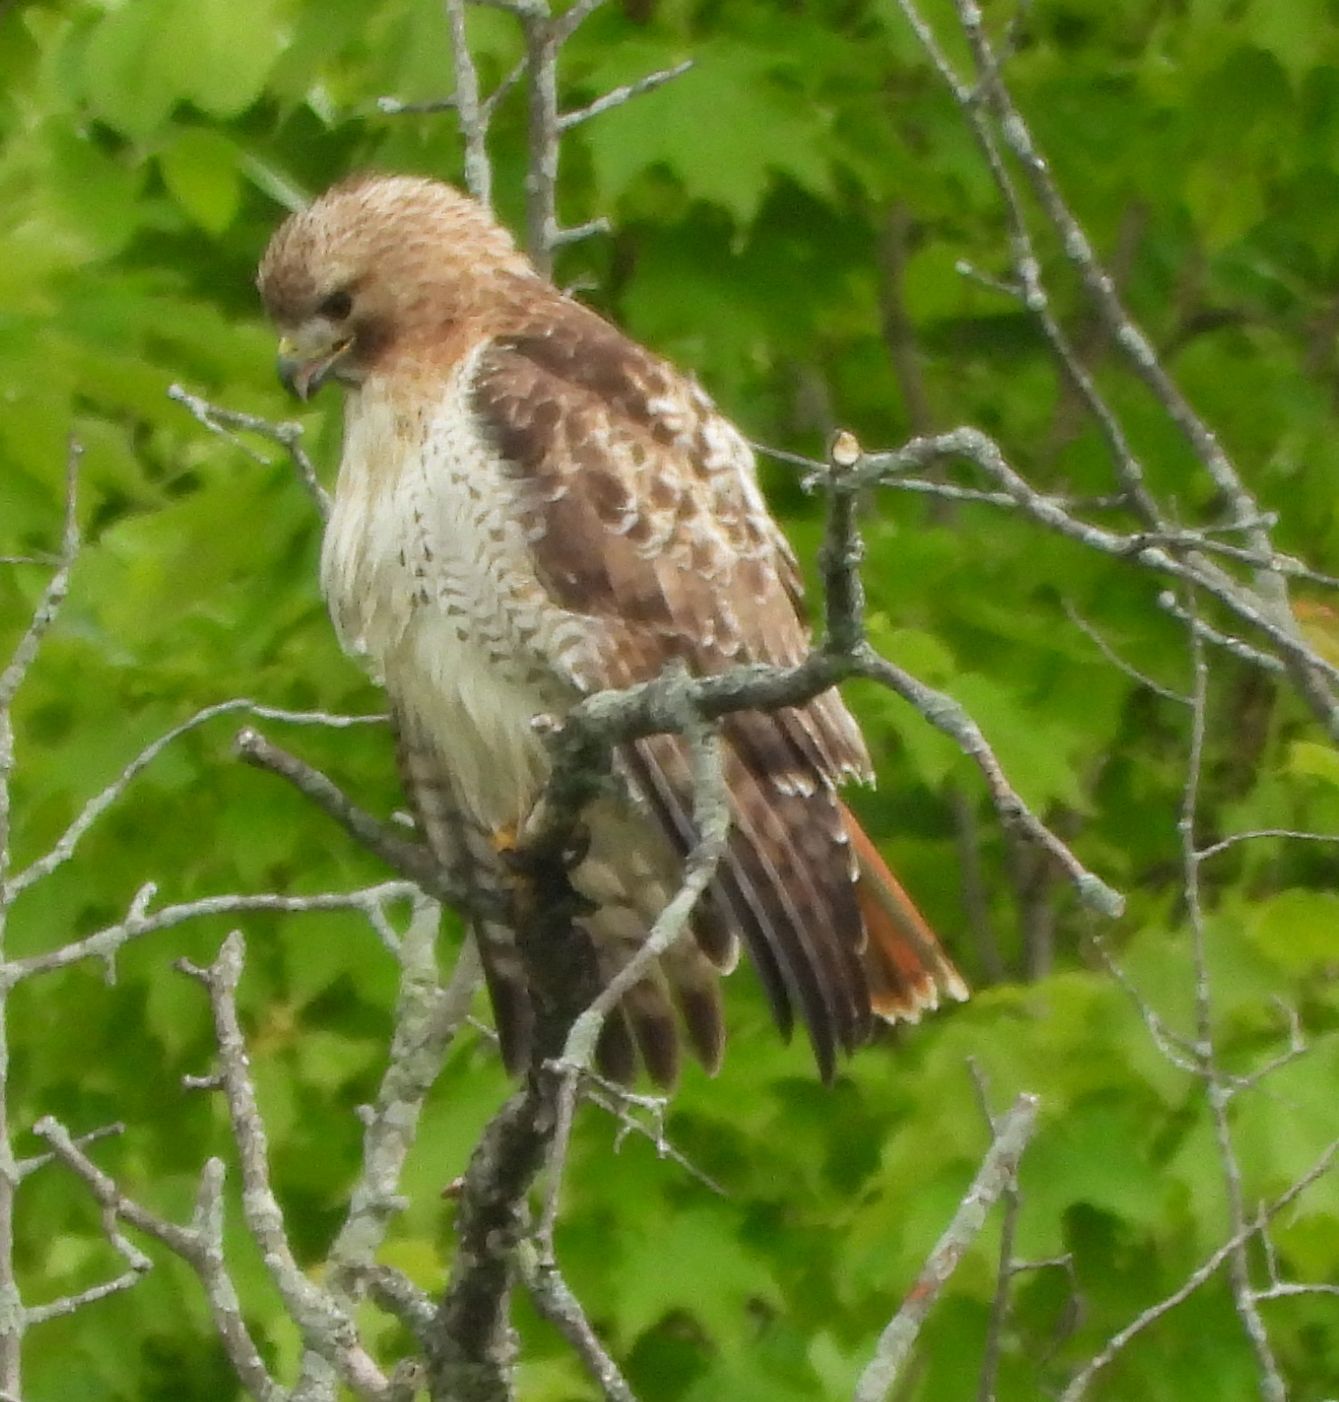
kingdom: Animalia
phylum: Chordata
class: Aves
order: Accipitriformes
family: Accipitridae
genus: Buteo
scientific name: Buteo jamaicensis
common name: Red-tailed hawk
